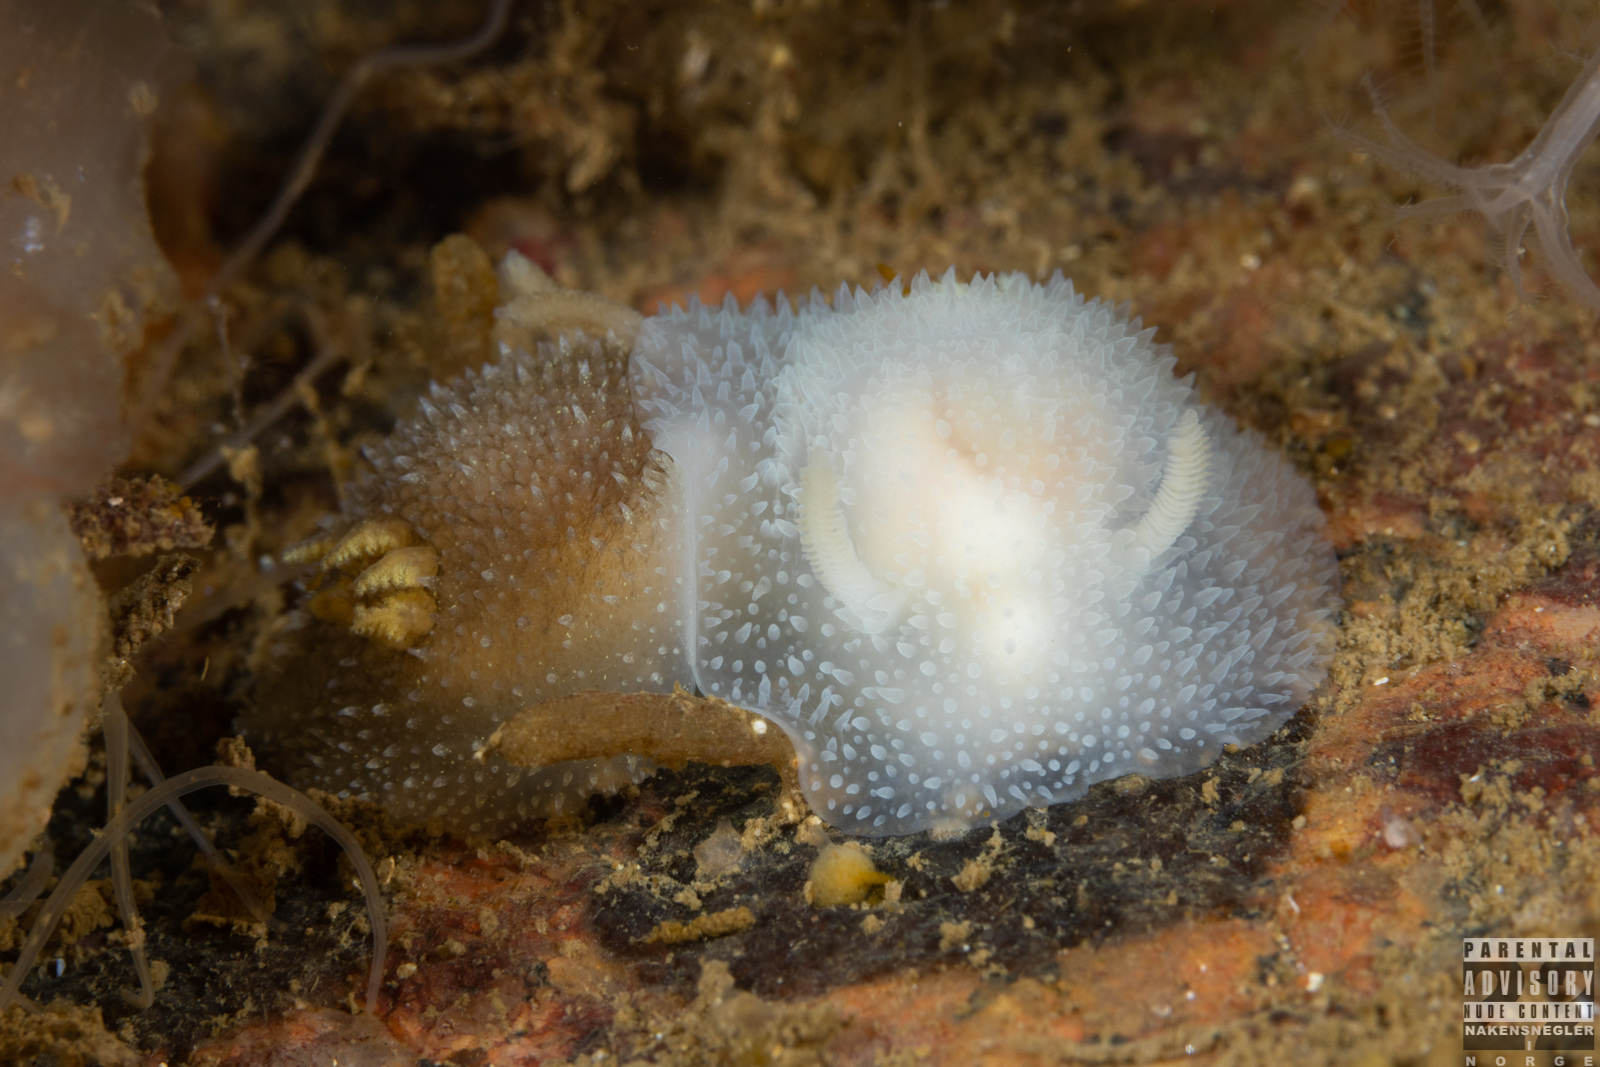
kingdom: Animalia
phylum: Mollusca
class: Gastropoda
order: Nudibranchia
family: Onchidorididae
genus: Acanthodoris
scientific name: Acanthodoris pilosa
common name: Hairy spiny doris
